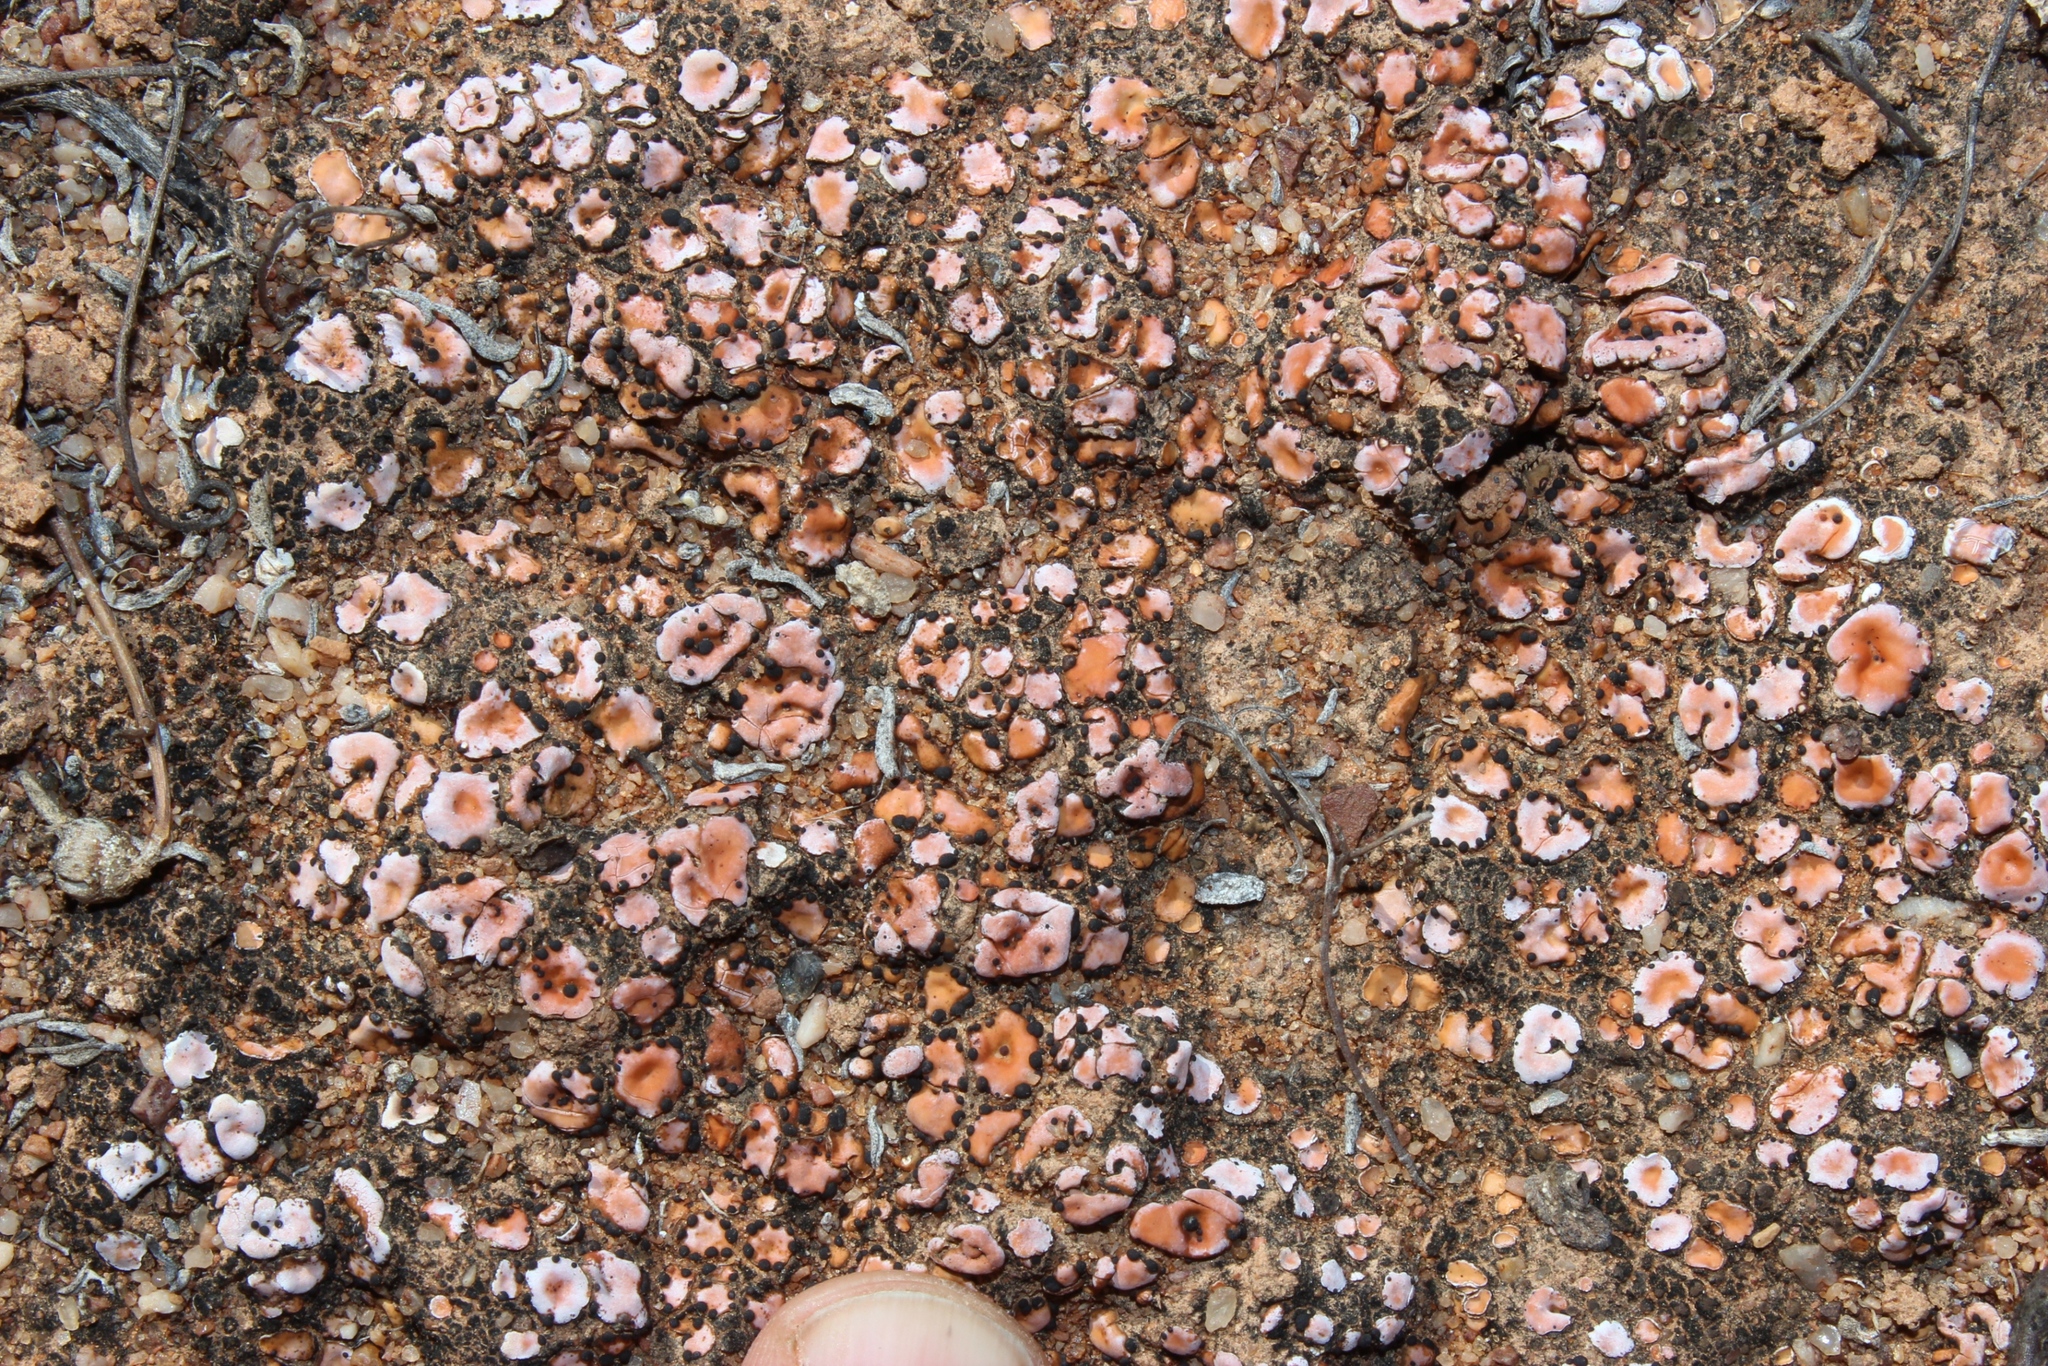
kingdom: Fungi
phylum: Ascomycota
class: Lecanoromycetes
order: Lecanorales
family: Psoraceae
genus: Psora
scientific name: Psora crenata
